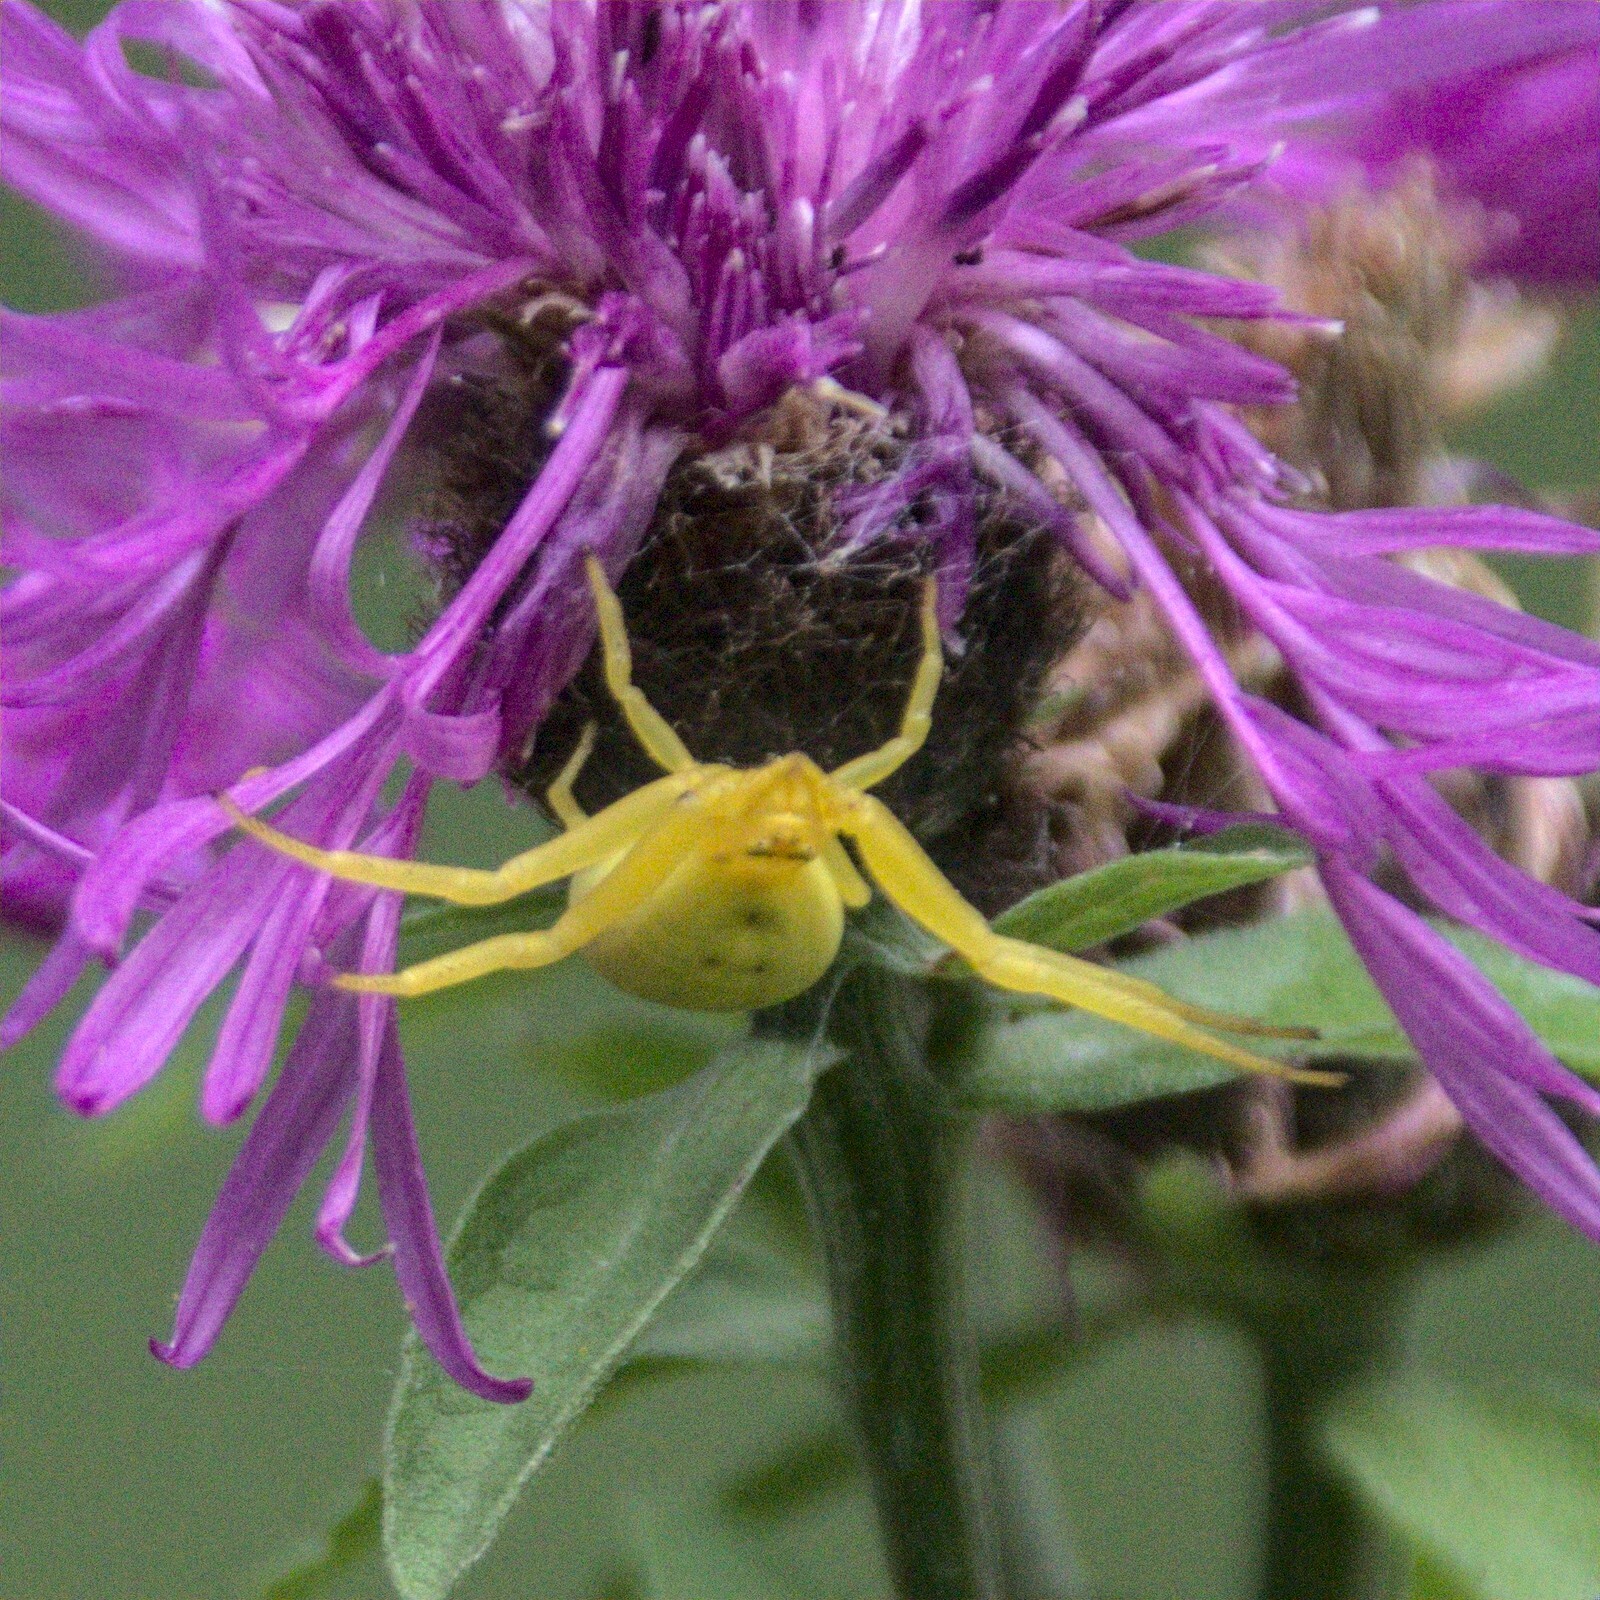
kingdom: Animalia
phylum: Arthropoda
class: Arachnida
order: Araneae
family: Thomisidae
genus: Misumena
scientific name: Misumena vatia
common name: Goldenrod crab spider
